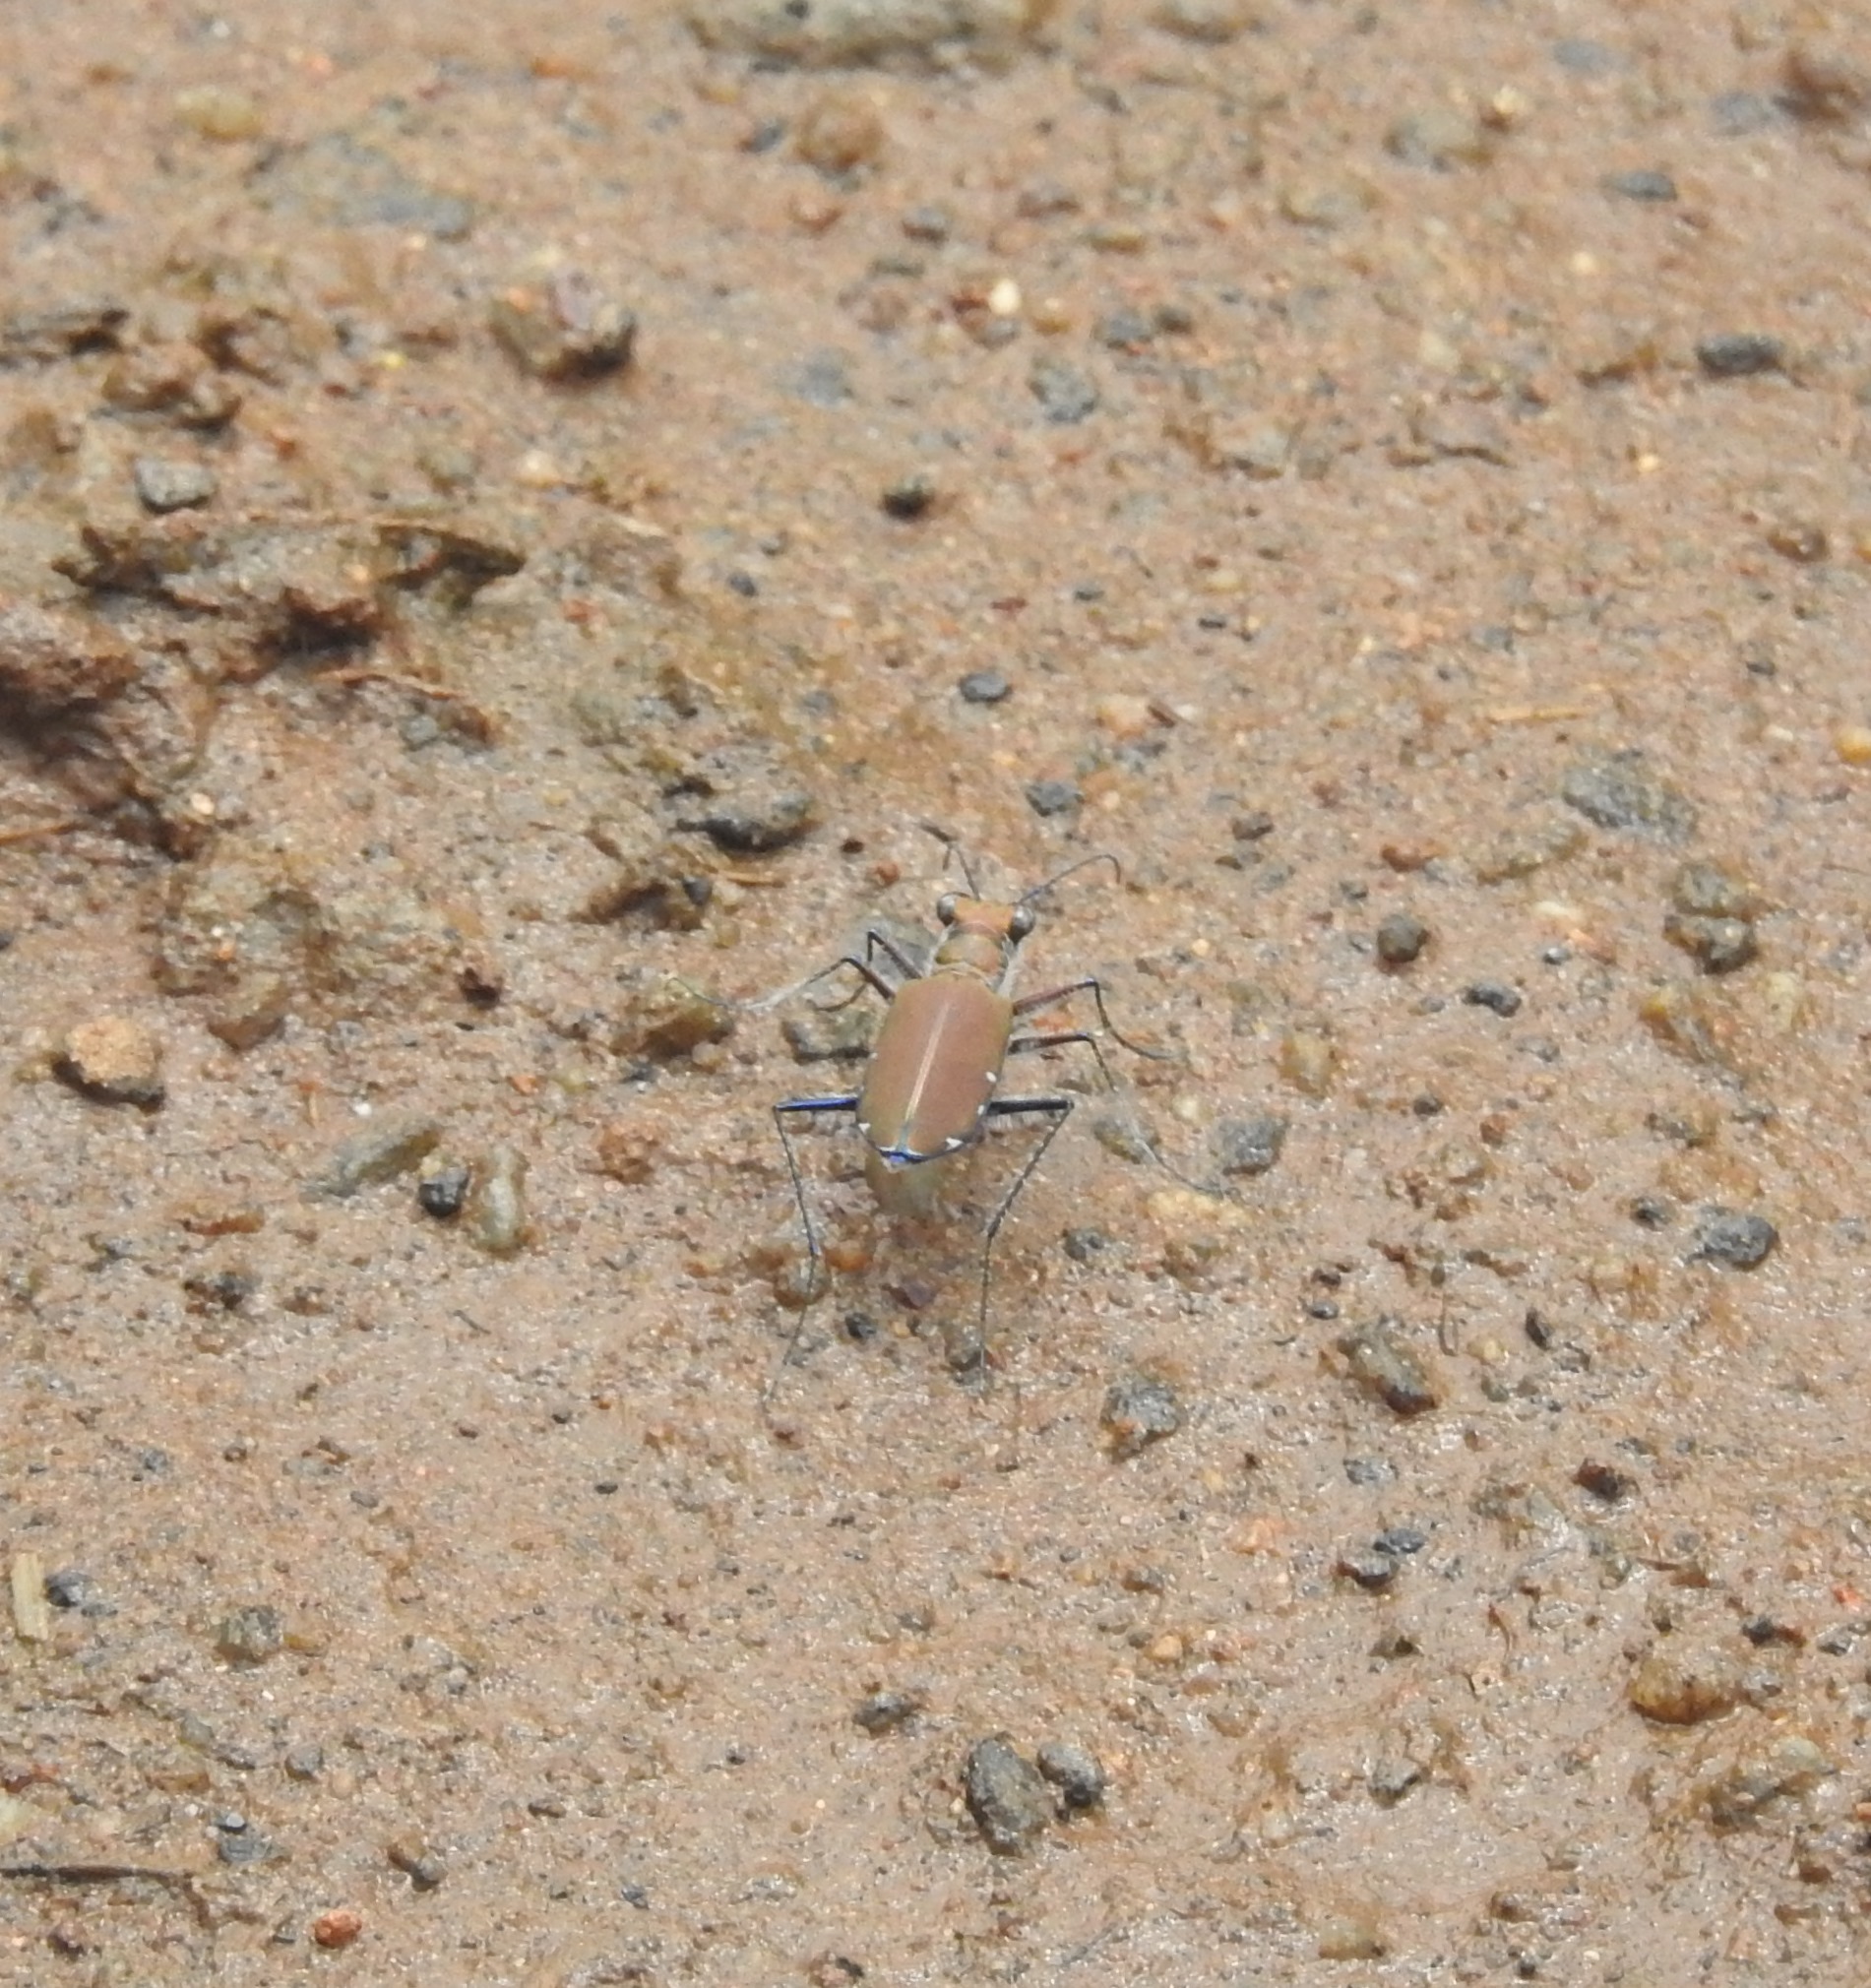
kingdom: Animalia
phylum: Arthropoda
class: Insecta
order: Coleoptera
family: Carabidae
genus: Cicindela
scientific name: Cicindela funerea
